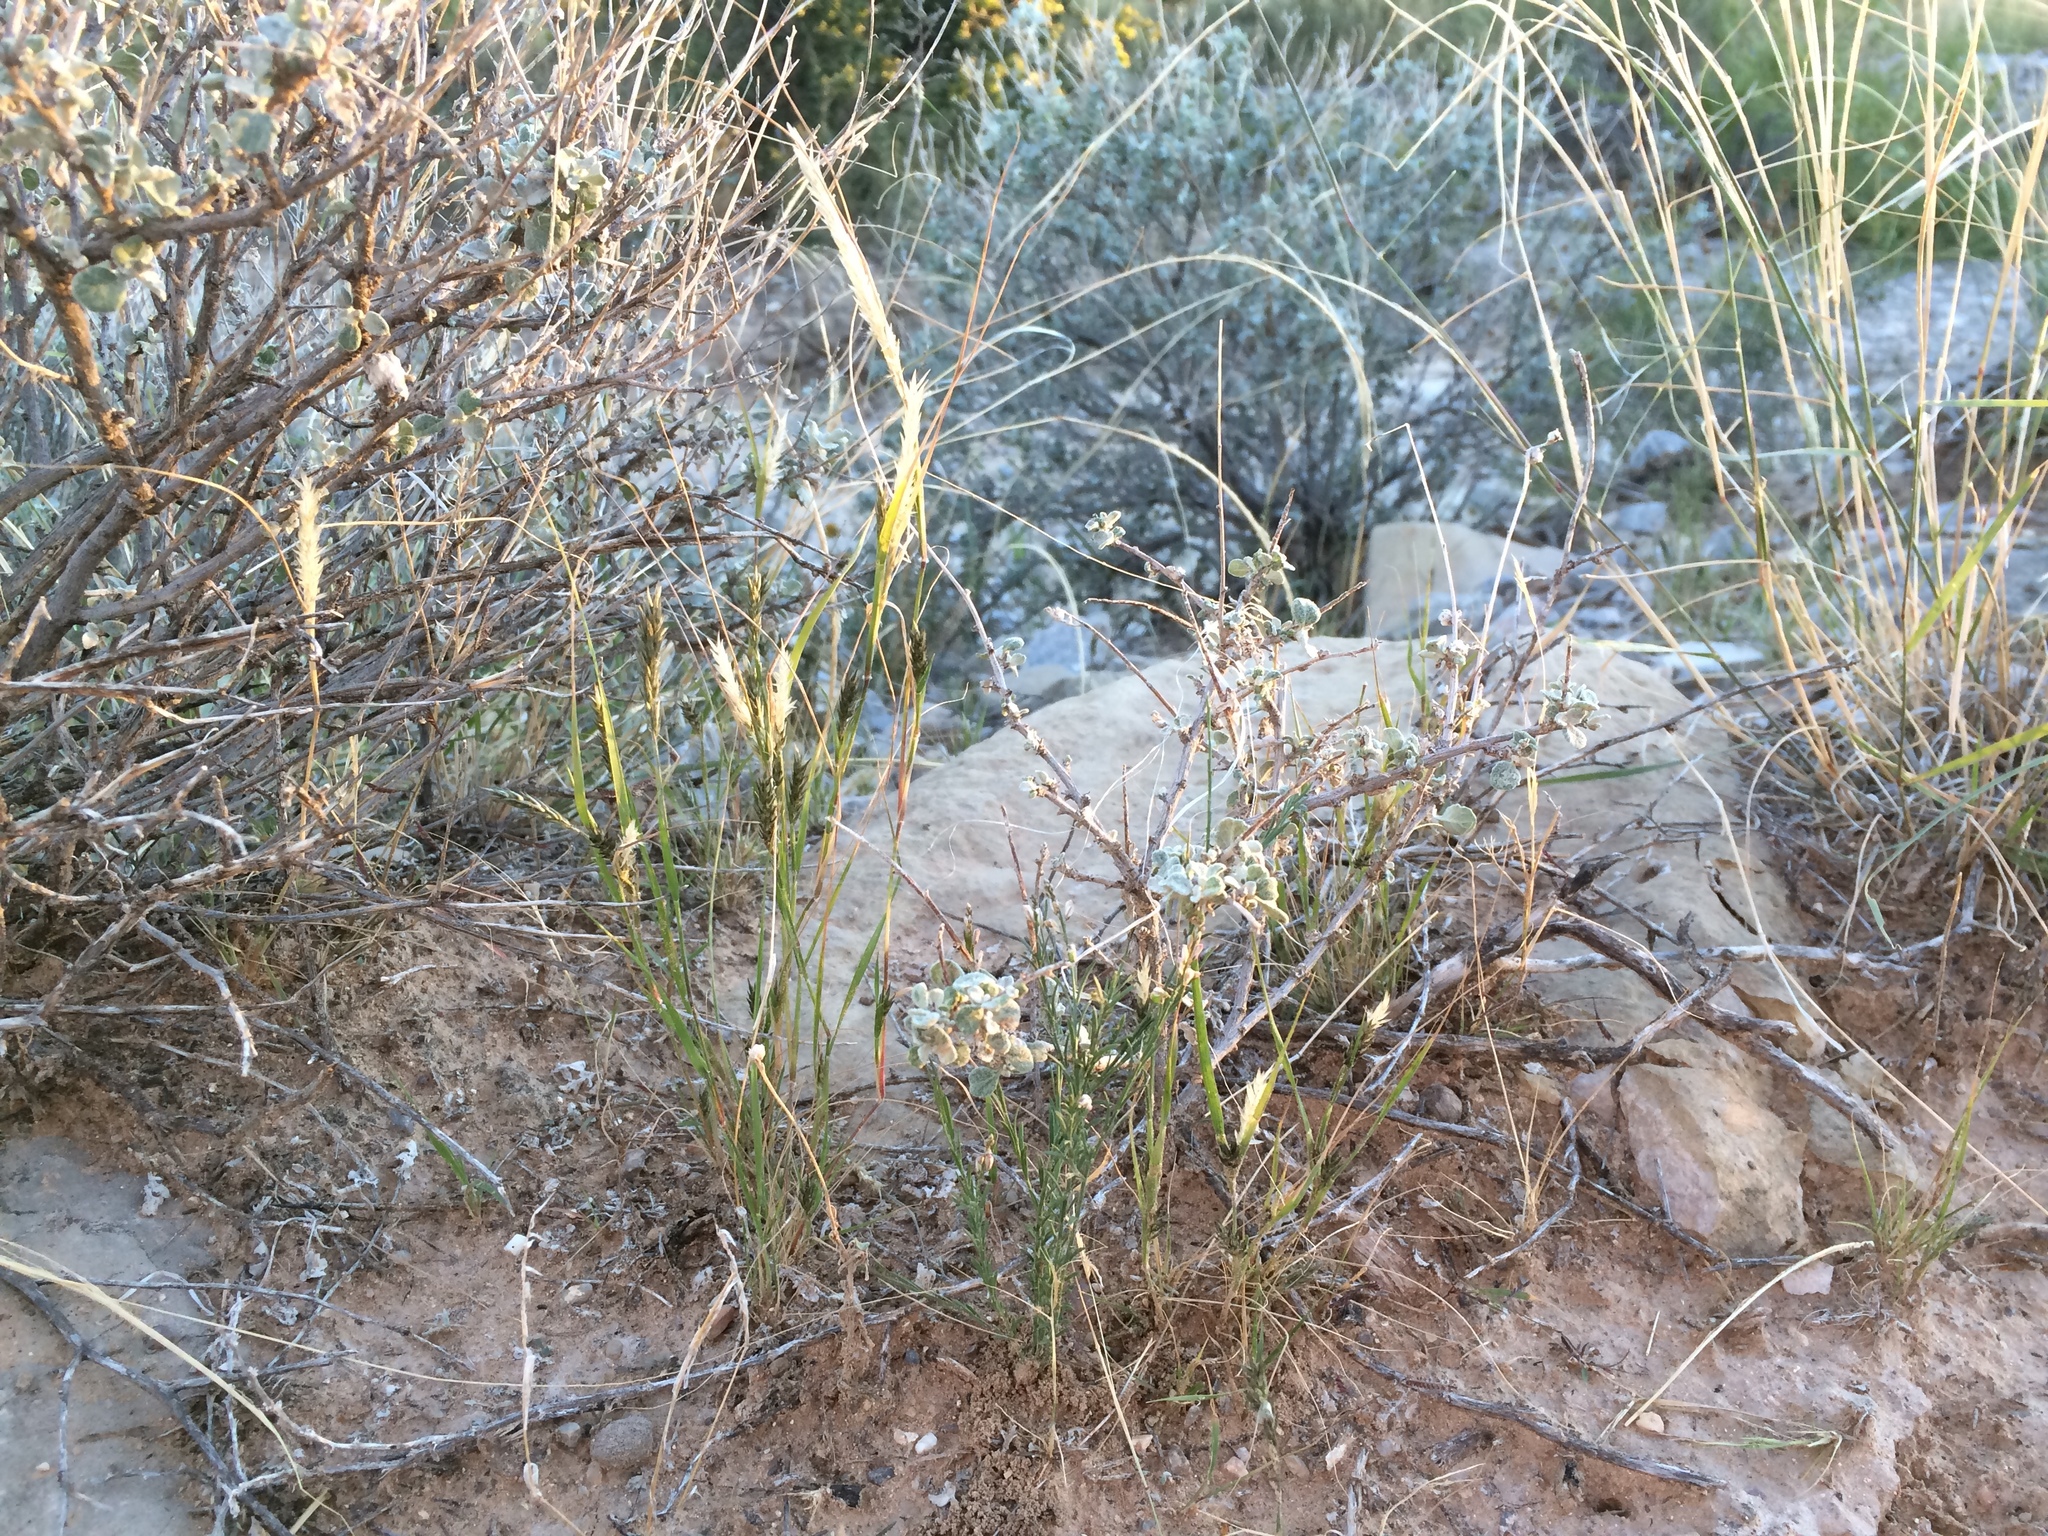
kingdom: Plantae
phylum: Tracheophyta
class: Liliopsida
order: Poales
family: Poaceae
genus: Enneapogon
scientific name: Enneapogon desvauxii
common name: Feather pappus grass
